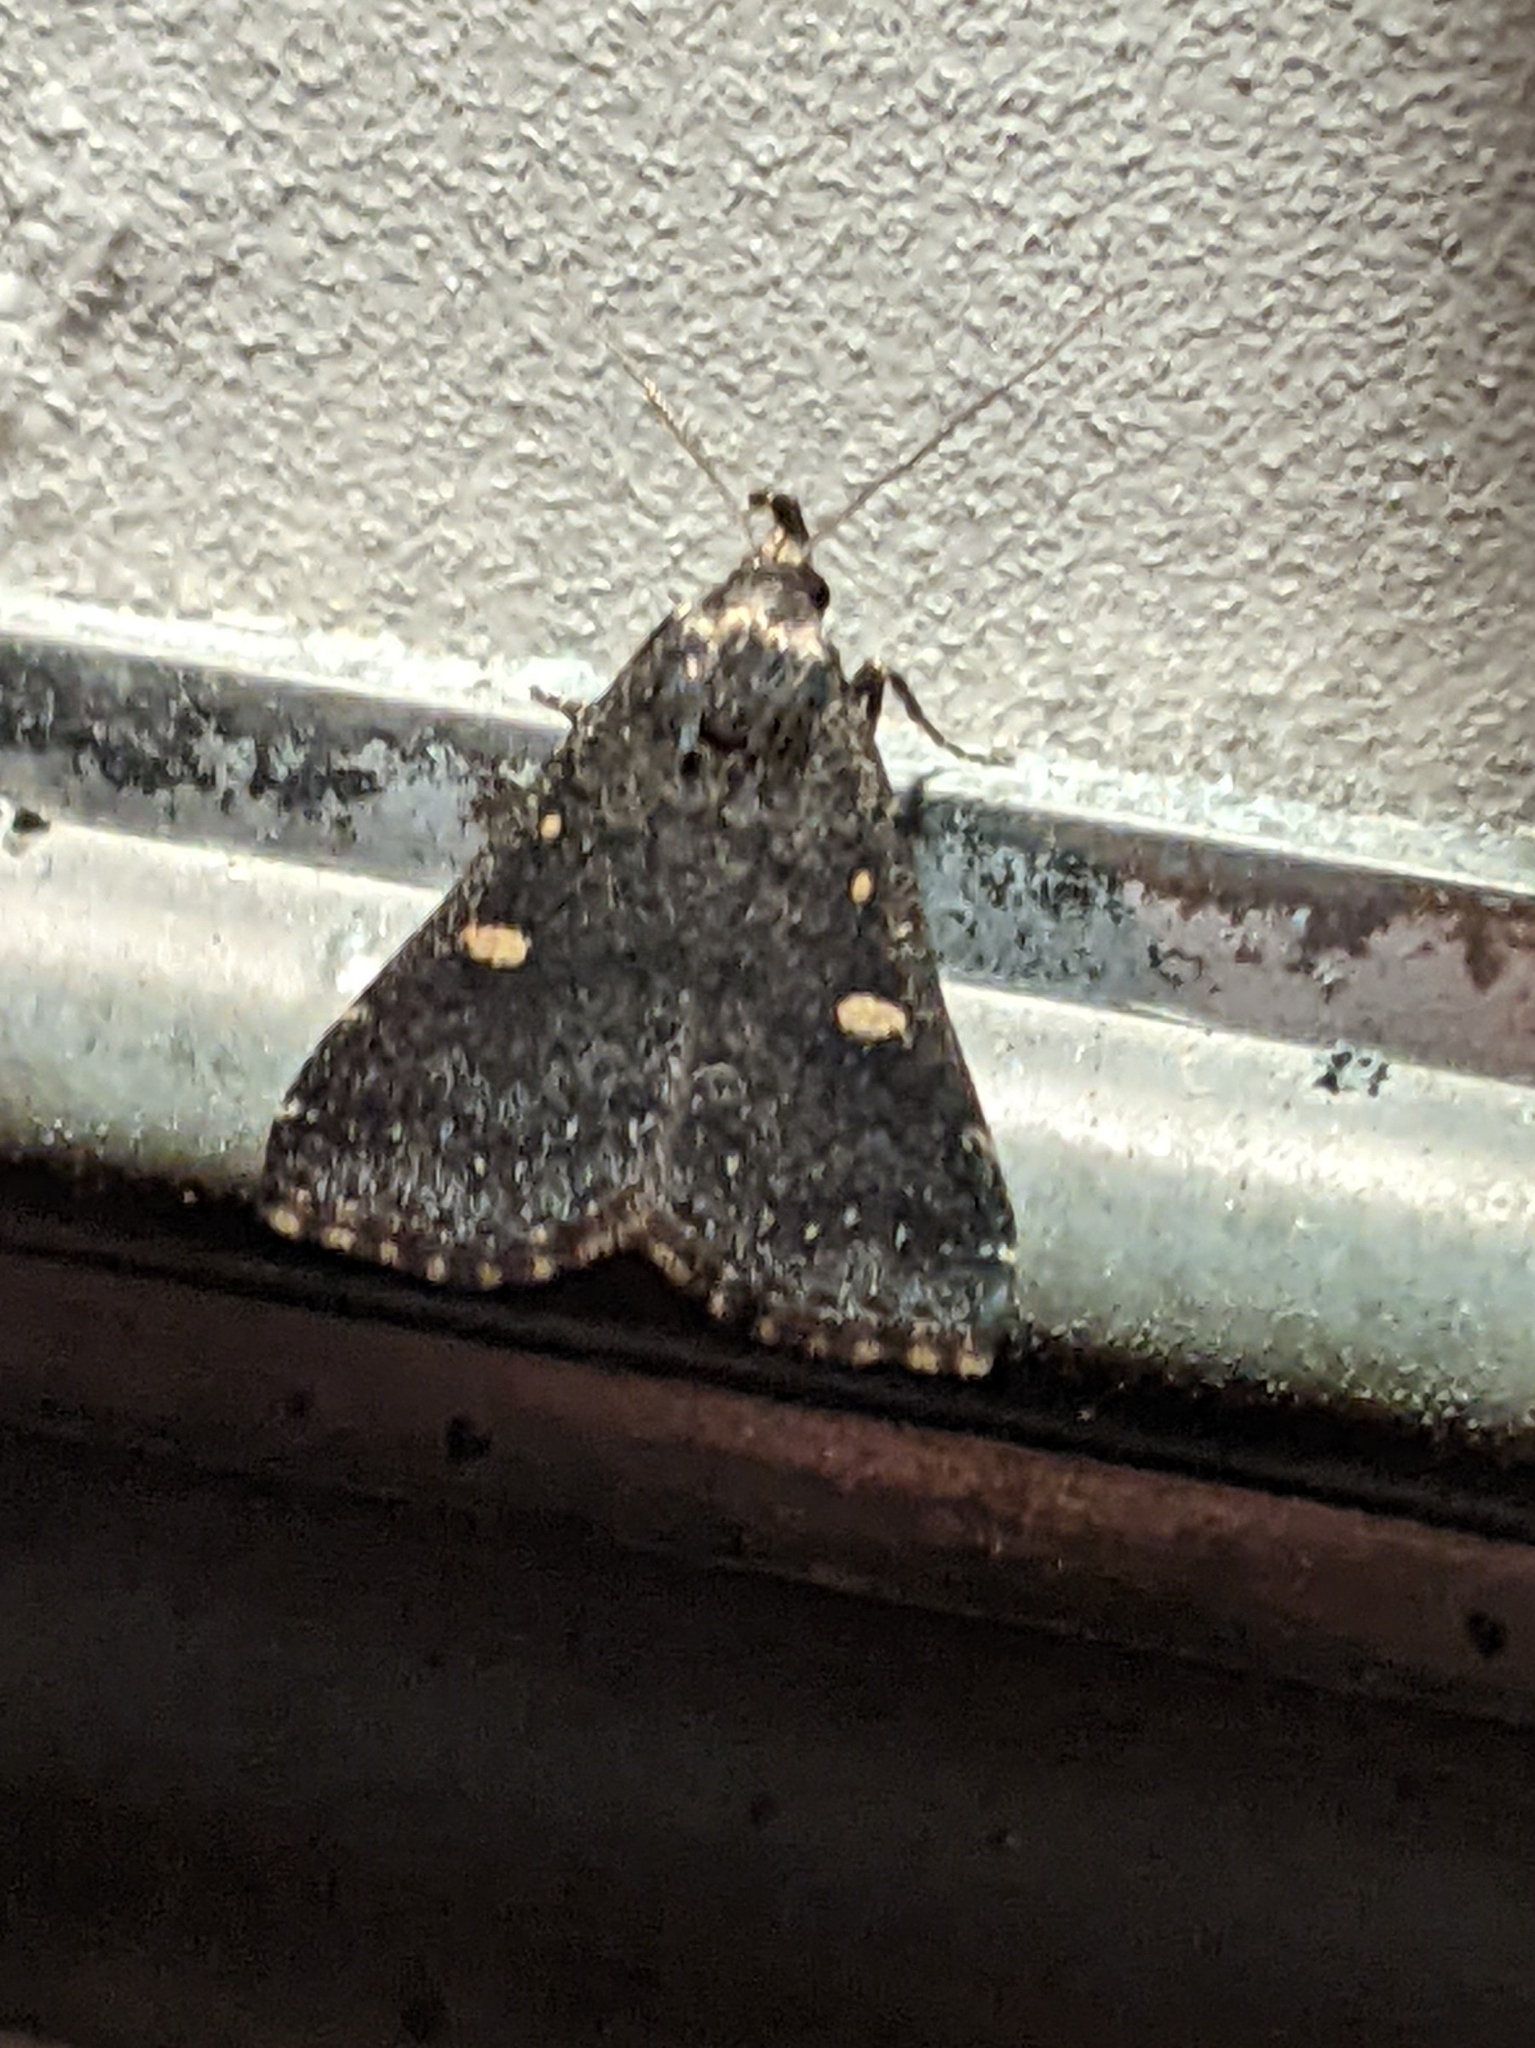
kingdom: Animalia
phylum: Arthropoda
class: Insecta
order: Lepidoptera
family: Erebidae
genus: Tetanolita
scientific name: Tetanolita mynesalis
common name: Smoky tetanolita moth
